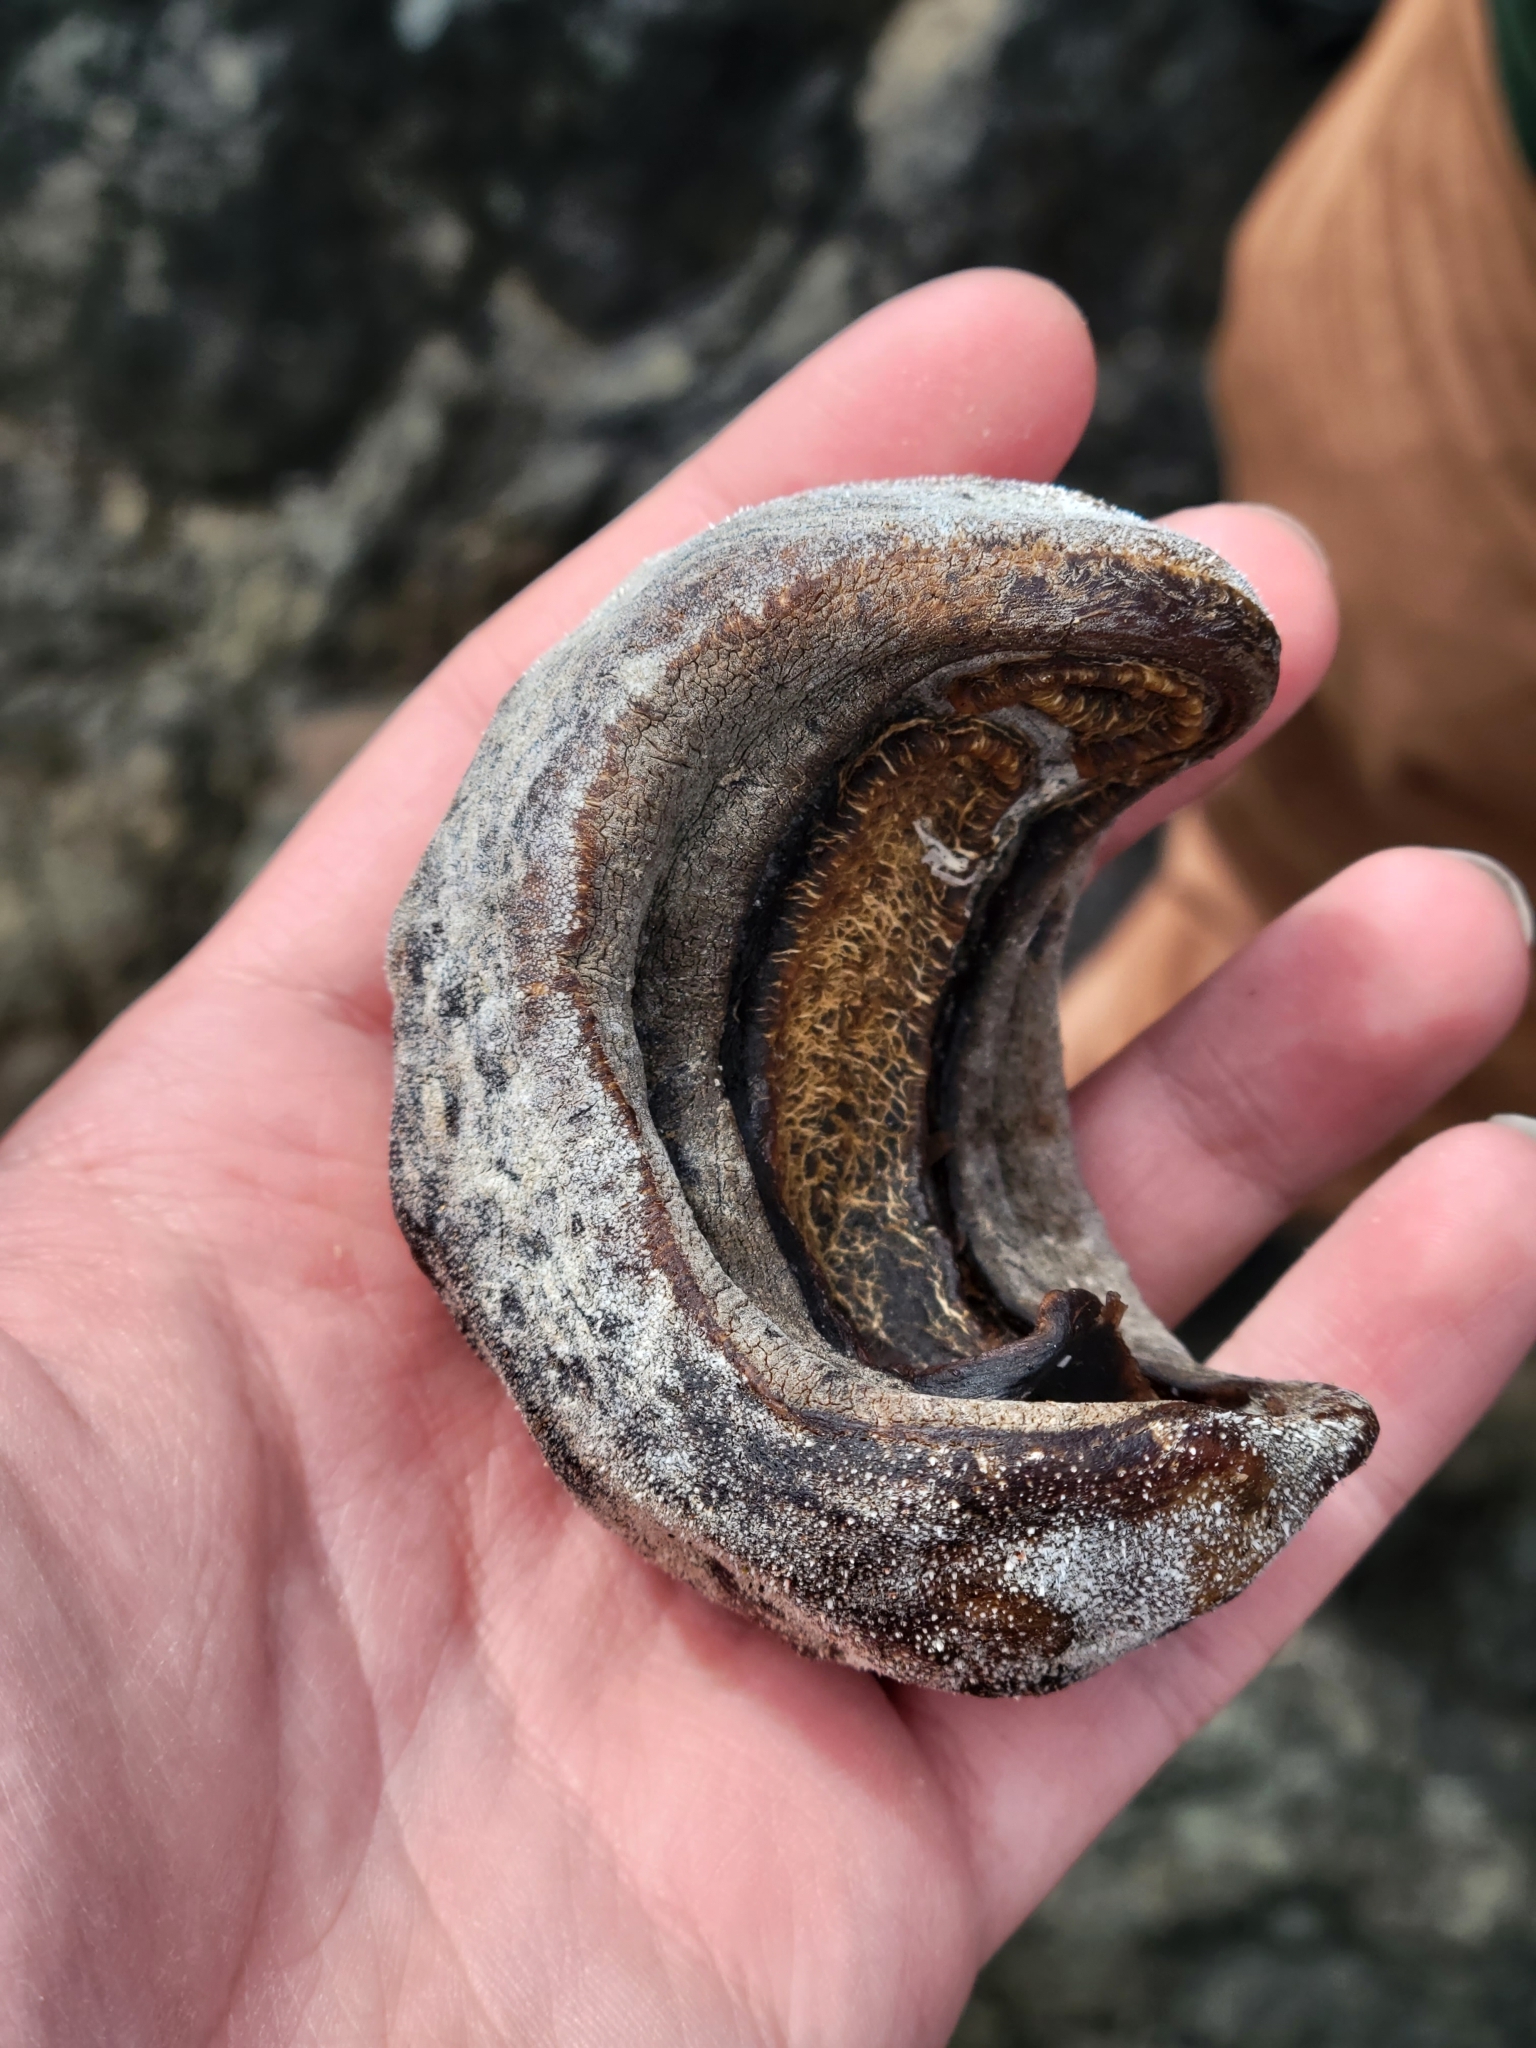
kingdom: Animalia
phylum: Mollusca
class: Polyplacophora
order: Chitonida
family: Acanthochitonidae
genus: Cryptochiton
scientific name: Cryptochiton stelleri
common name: Giant pacific chiton
